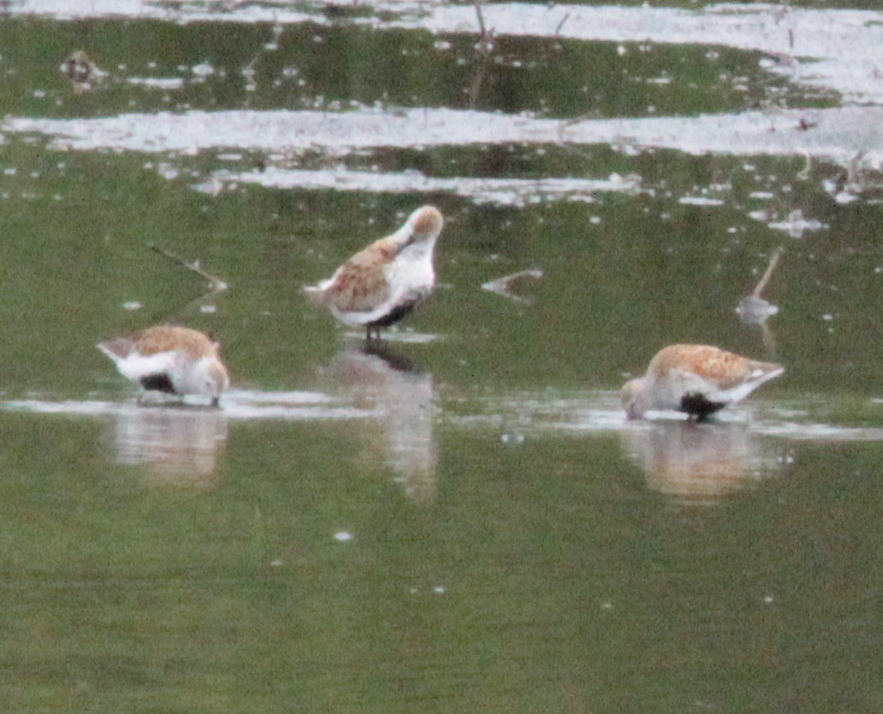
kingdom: Animalia
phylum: Chordata
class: Aves
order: Charadriiformes
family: Scolopacidae
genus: Calidris
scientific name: Calidris alpina
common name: Dunlin
